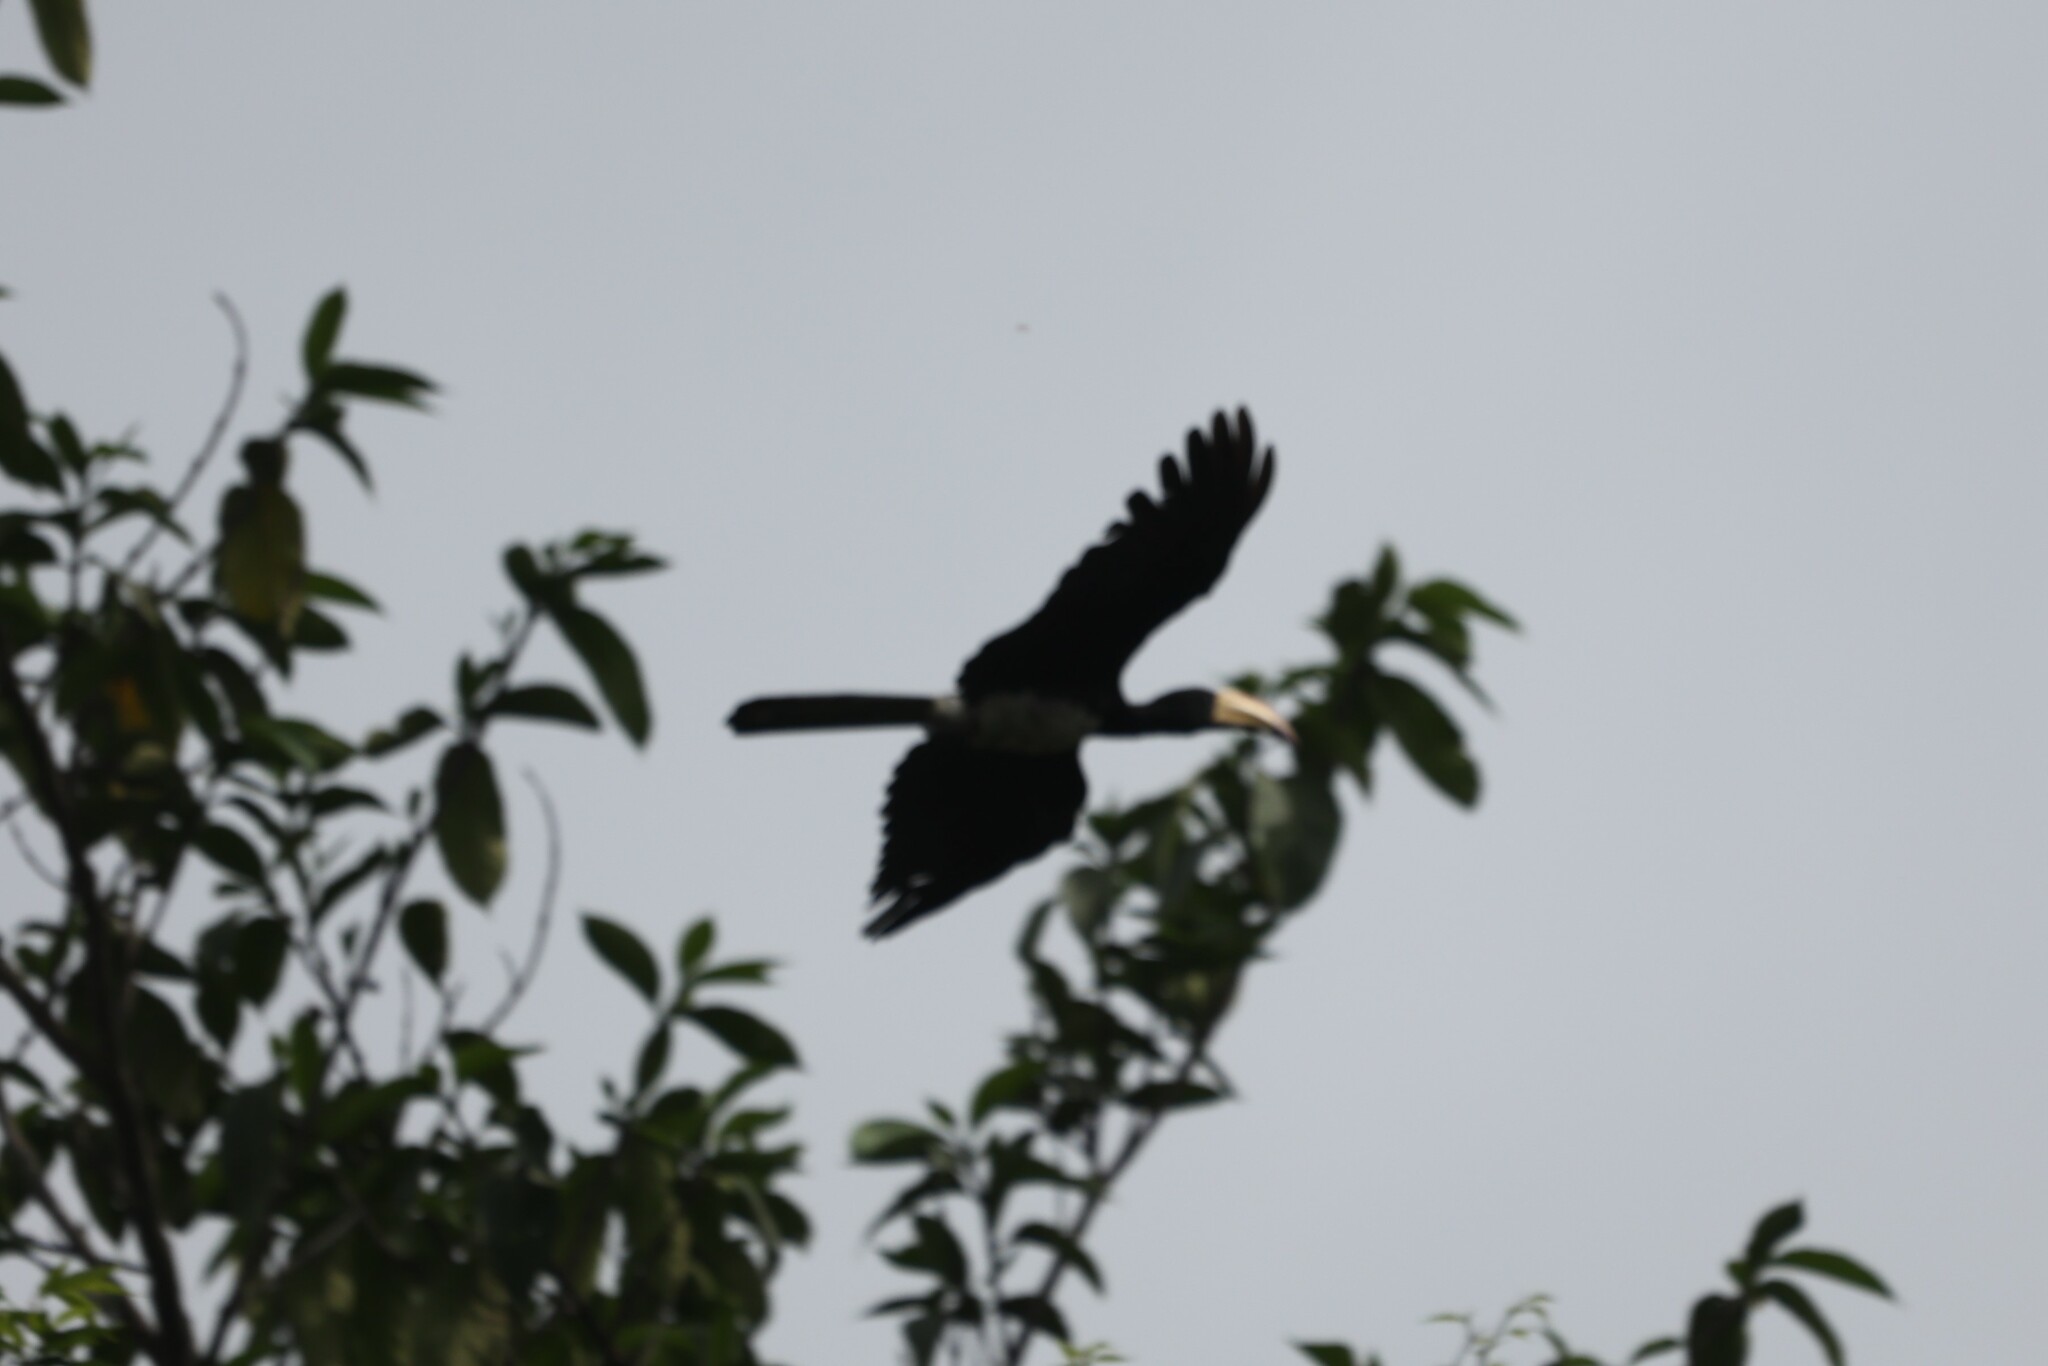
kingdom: Animalia
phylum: Chordata
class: Aves
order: Bucerotiformes
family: Bucerotidae
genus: Lophoceros
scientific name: Lophoceros fasciatus
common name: African pied hornbill
